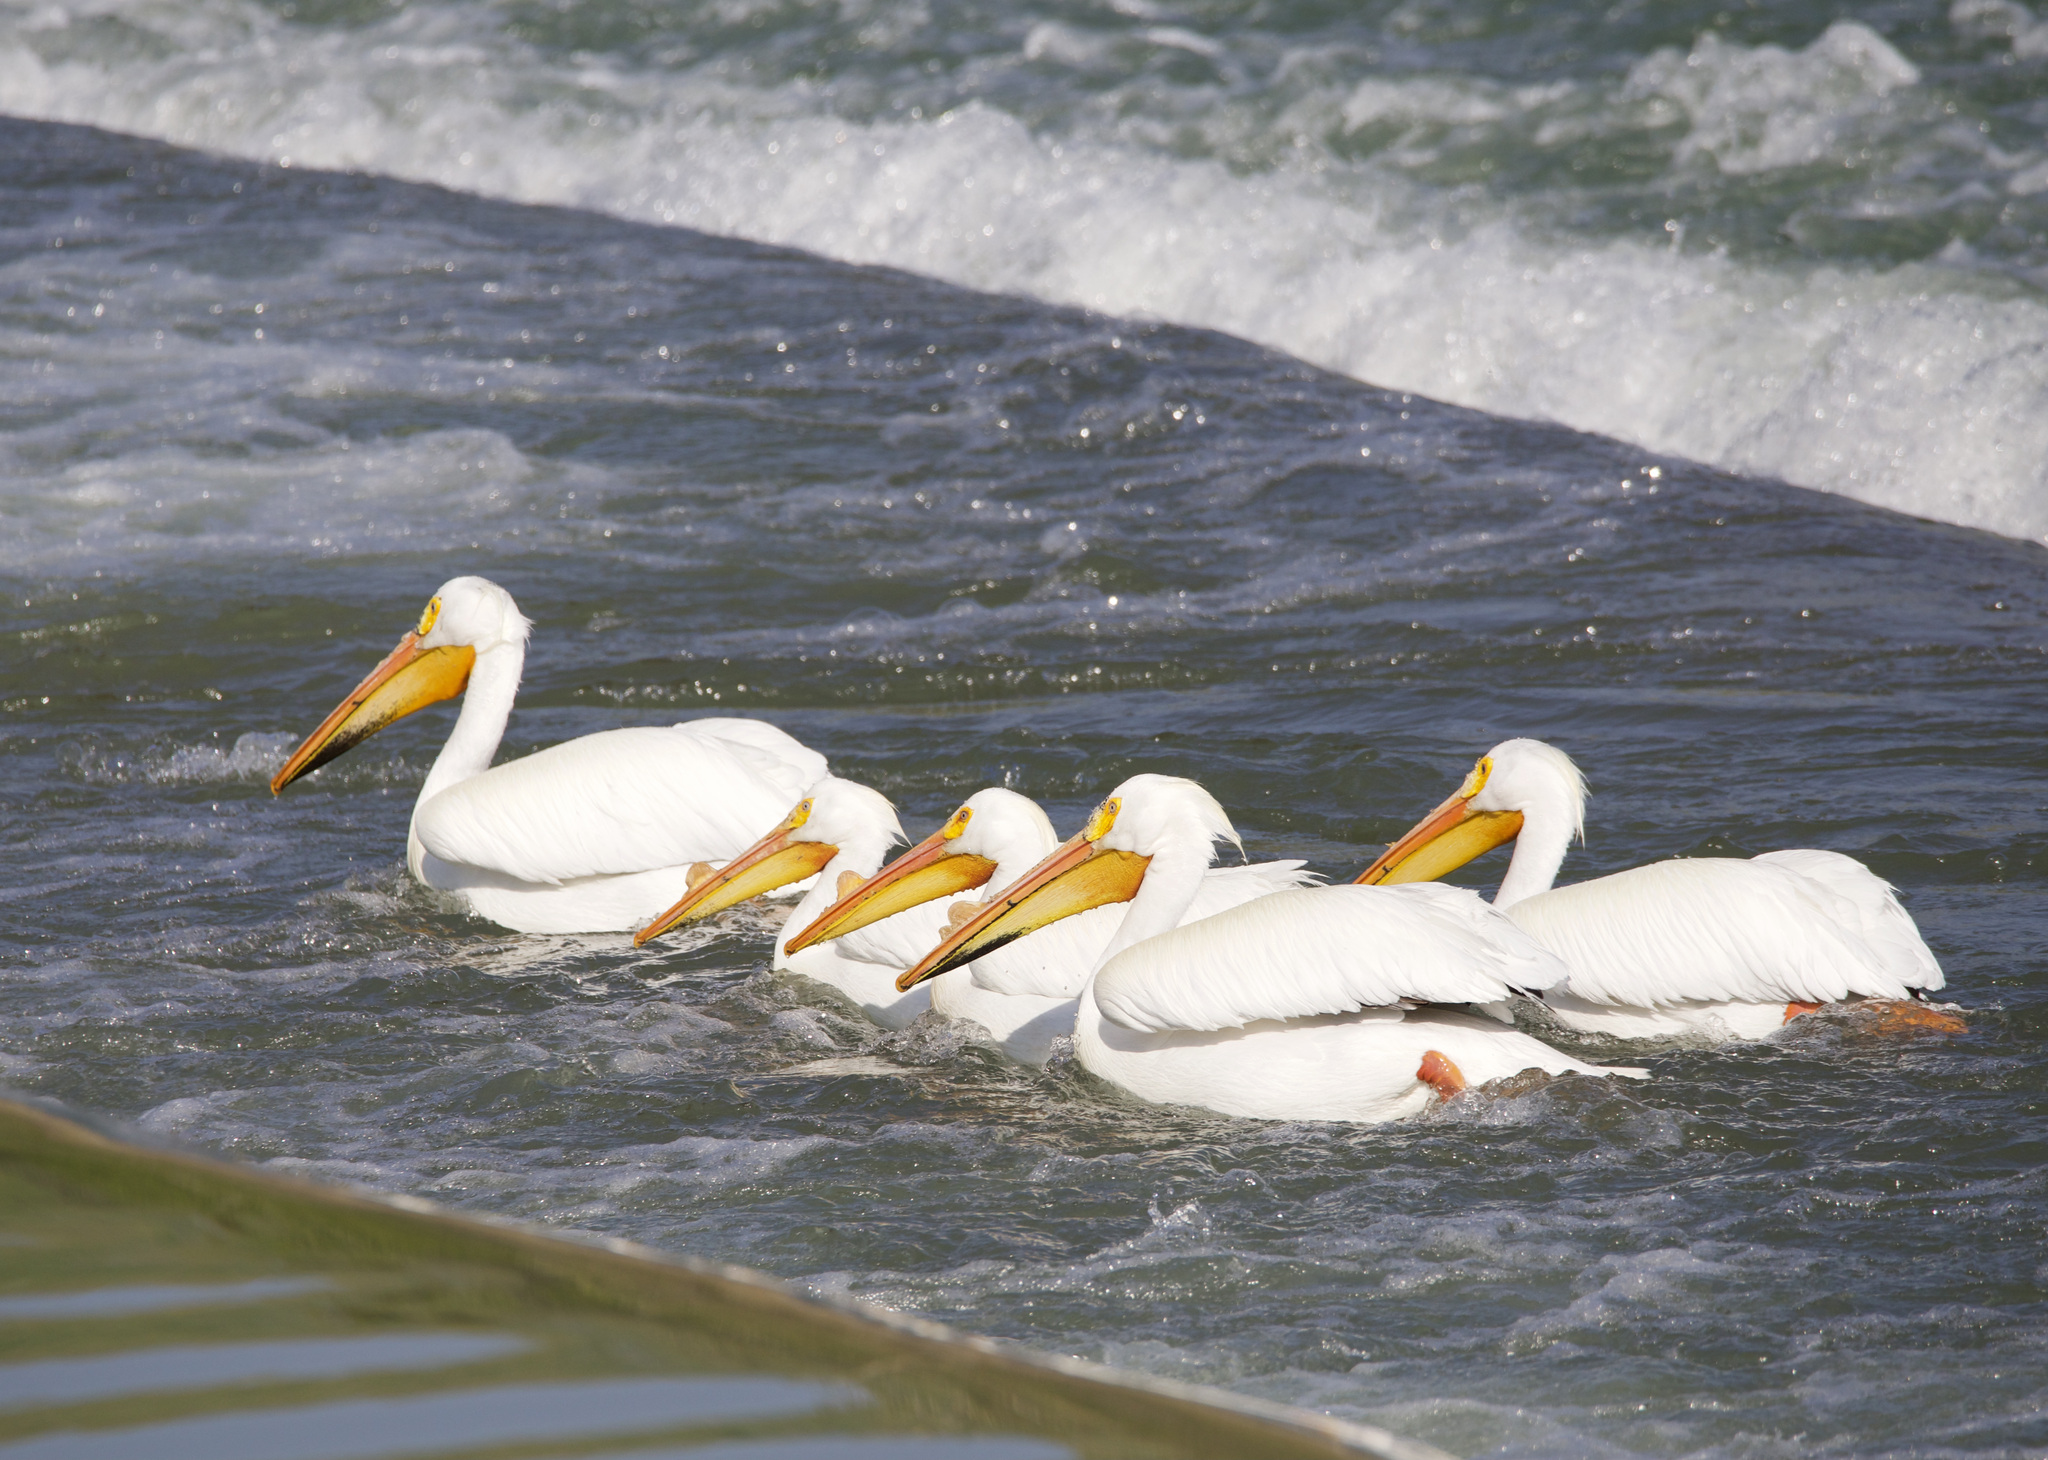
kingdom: Animalia
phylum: Chordata
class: Aves
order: Pelecaniformes
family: Pelecanidae
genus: Pelecanus
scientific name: Pelecanus erythrorhynchos
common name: American white pelican
